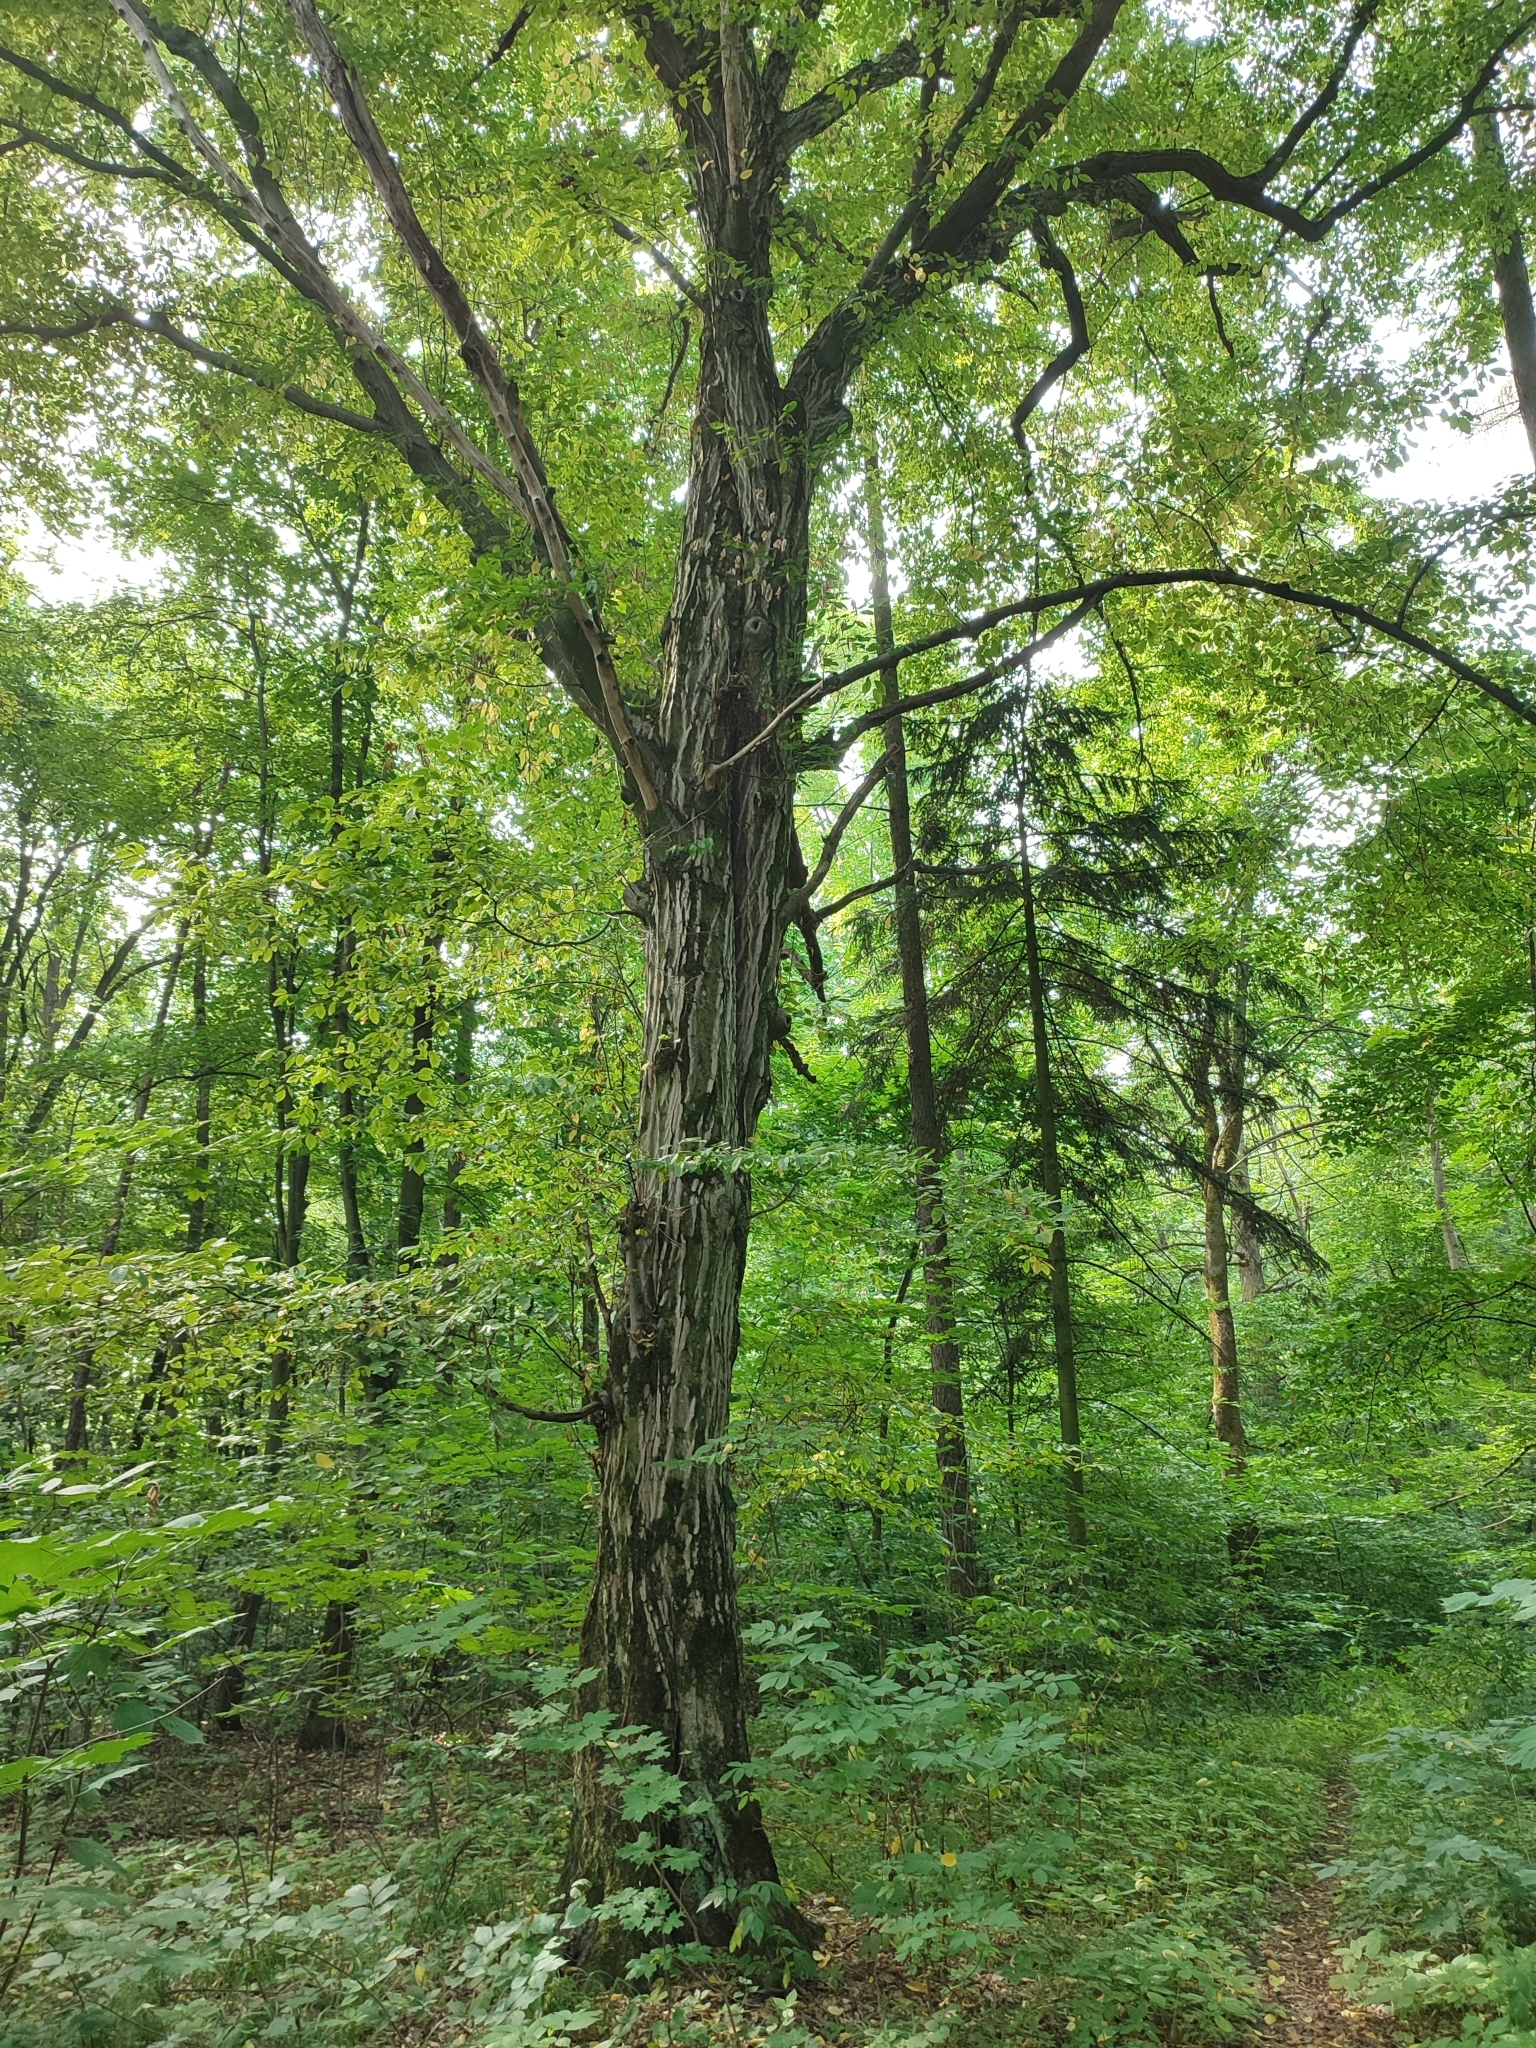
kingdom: Plantae
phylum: Tracheophyta
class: Magnoliopsida
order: Fagales
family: Betulaceae
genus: Carpinus
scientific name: Carpinus betulus
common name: Hornbeam
